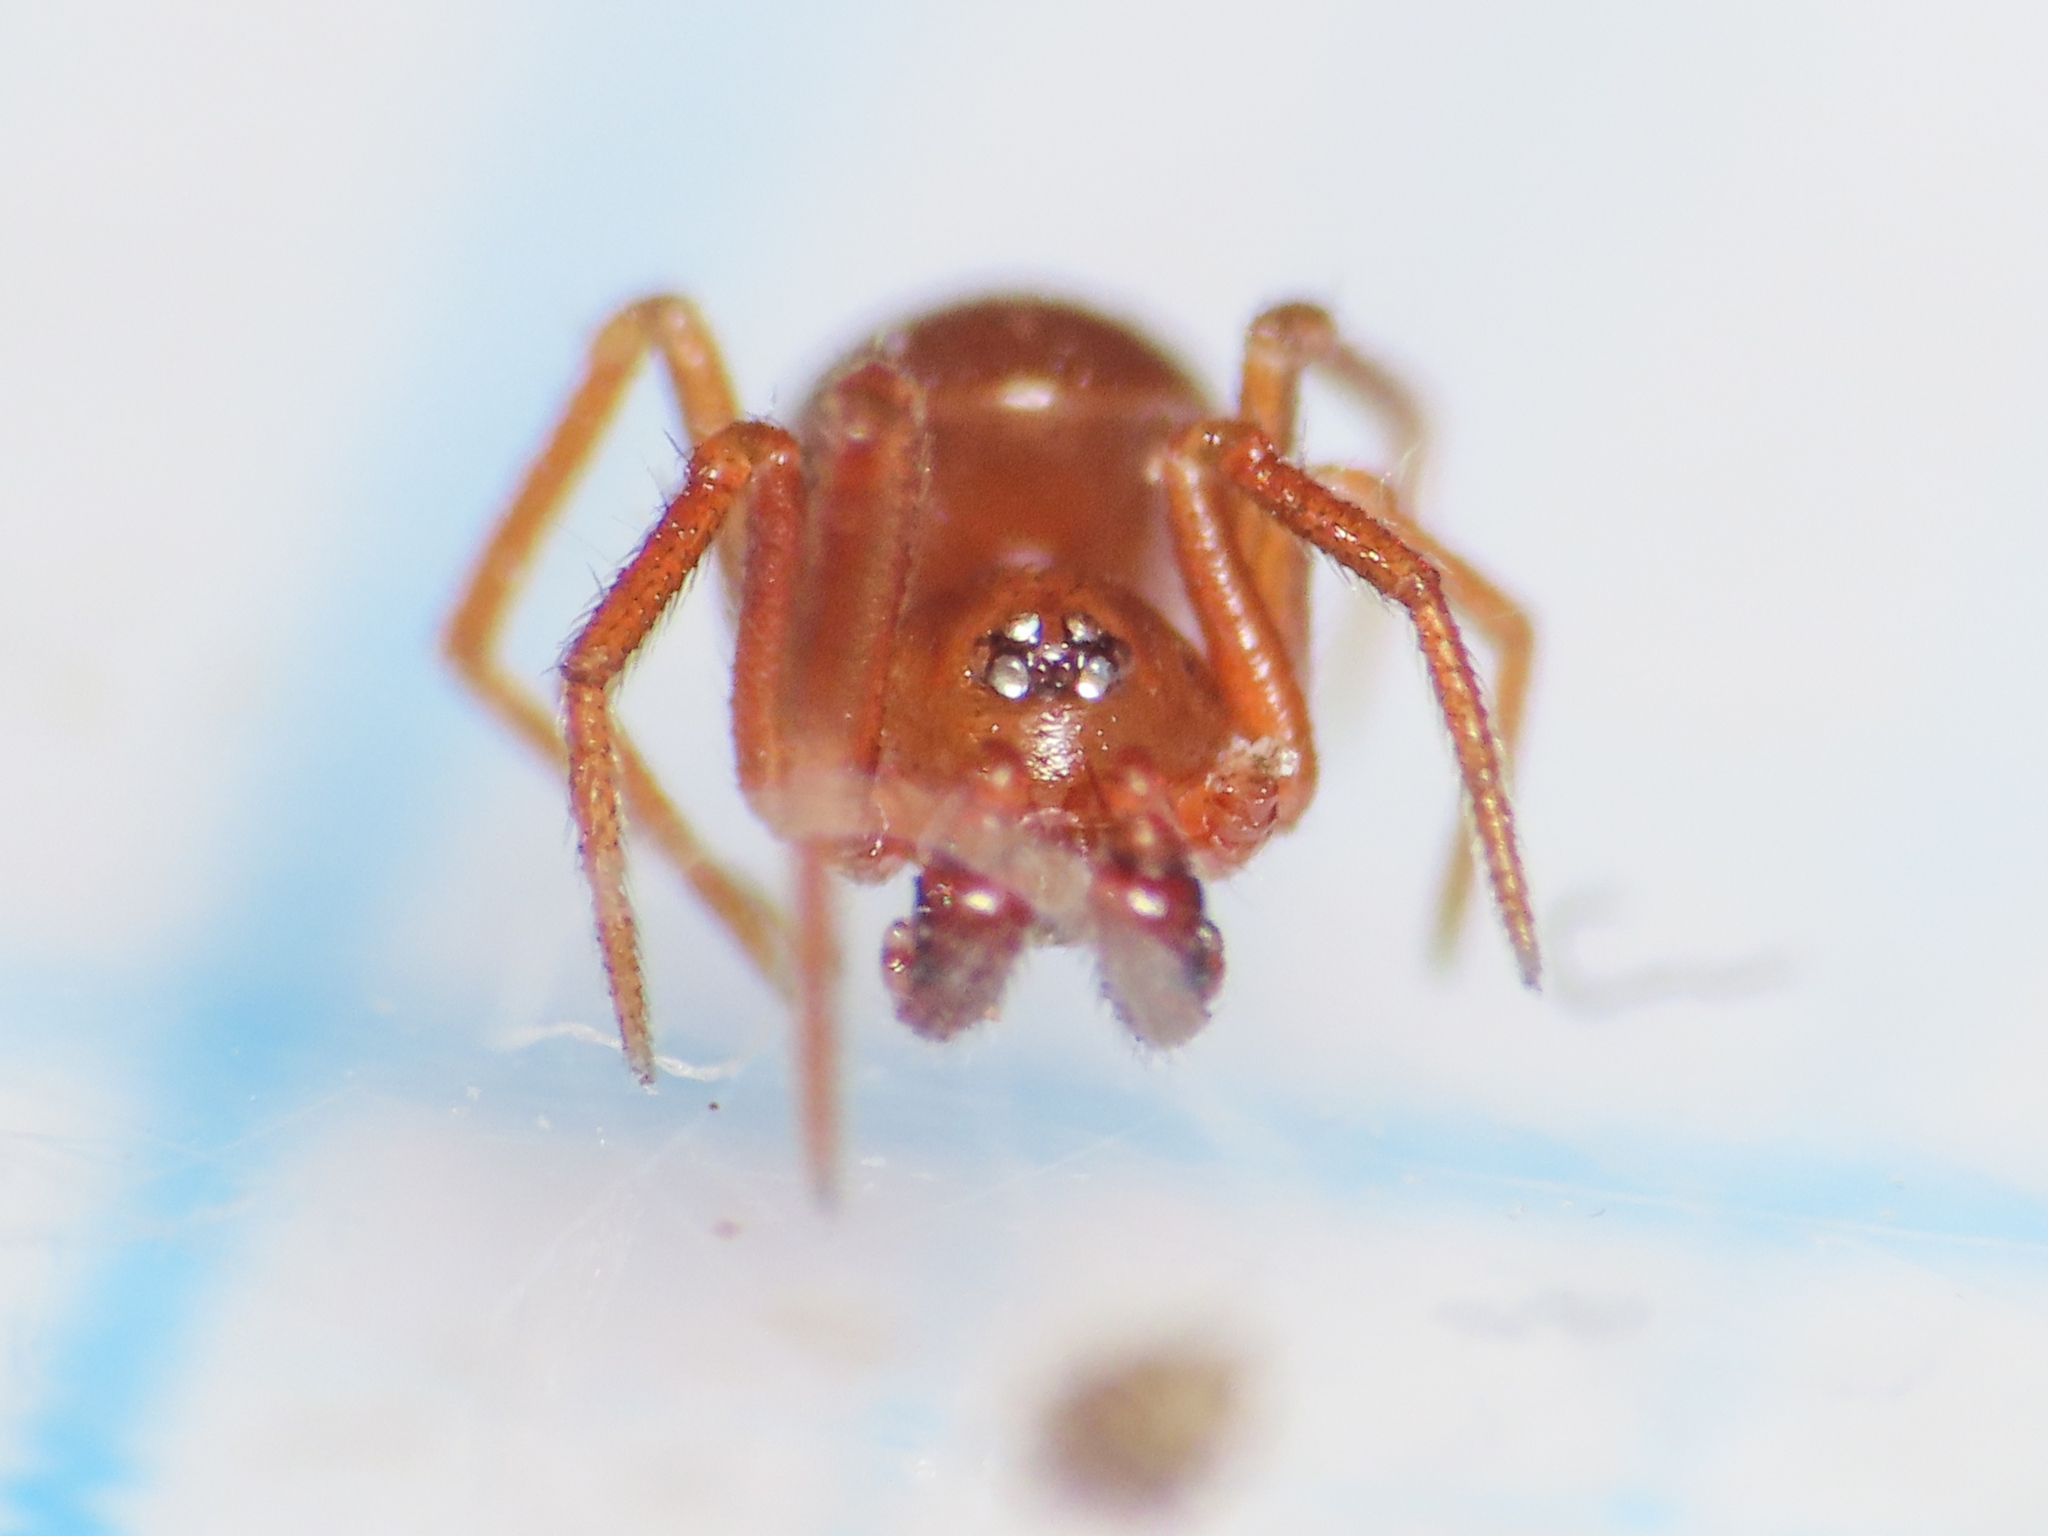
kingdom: Animalia
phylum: Arthropoda
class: Arachnida
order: Araneae
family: Theridiidae
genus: Pholcomma
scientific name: Pholcomma gibbum
